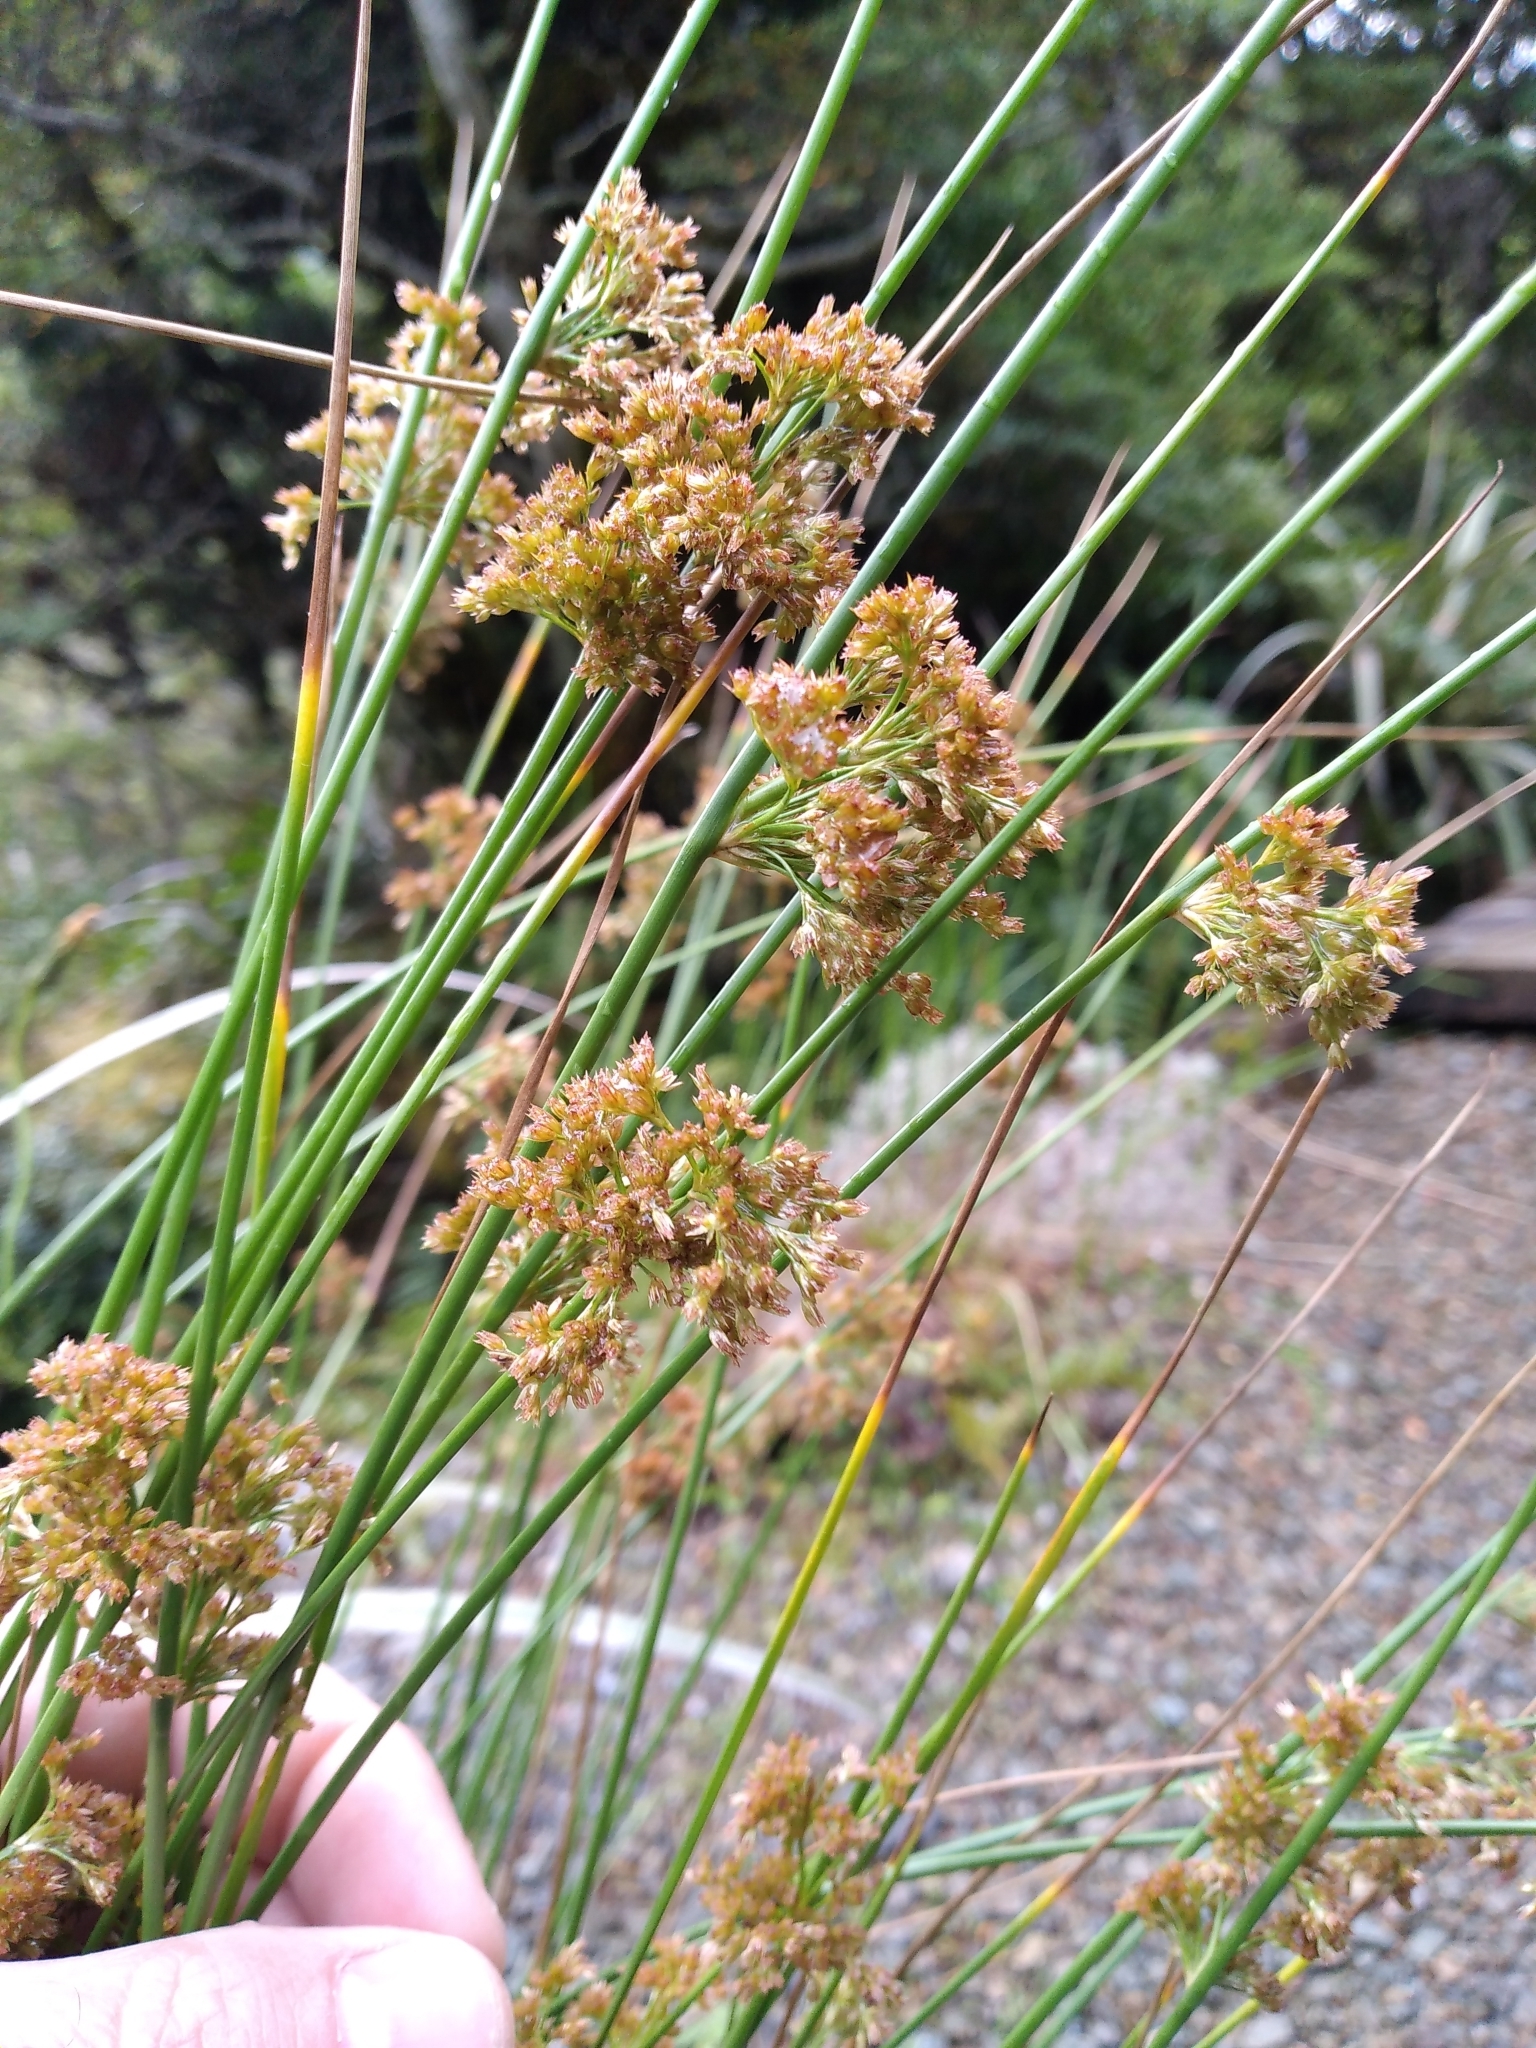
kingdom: Plantae
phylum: Tracheophyta
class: Liliopsida
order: Poales
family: Juncaceae
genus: Juncus
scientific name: Juncus effusus
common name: Soft rush
